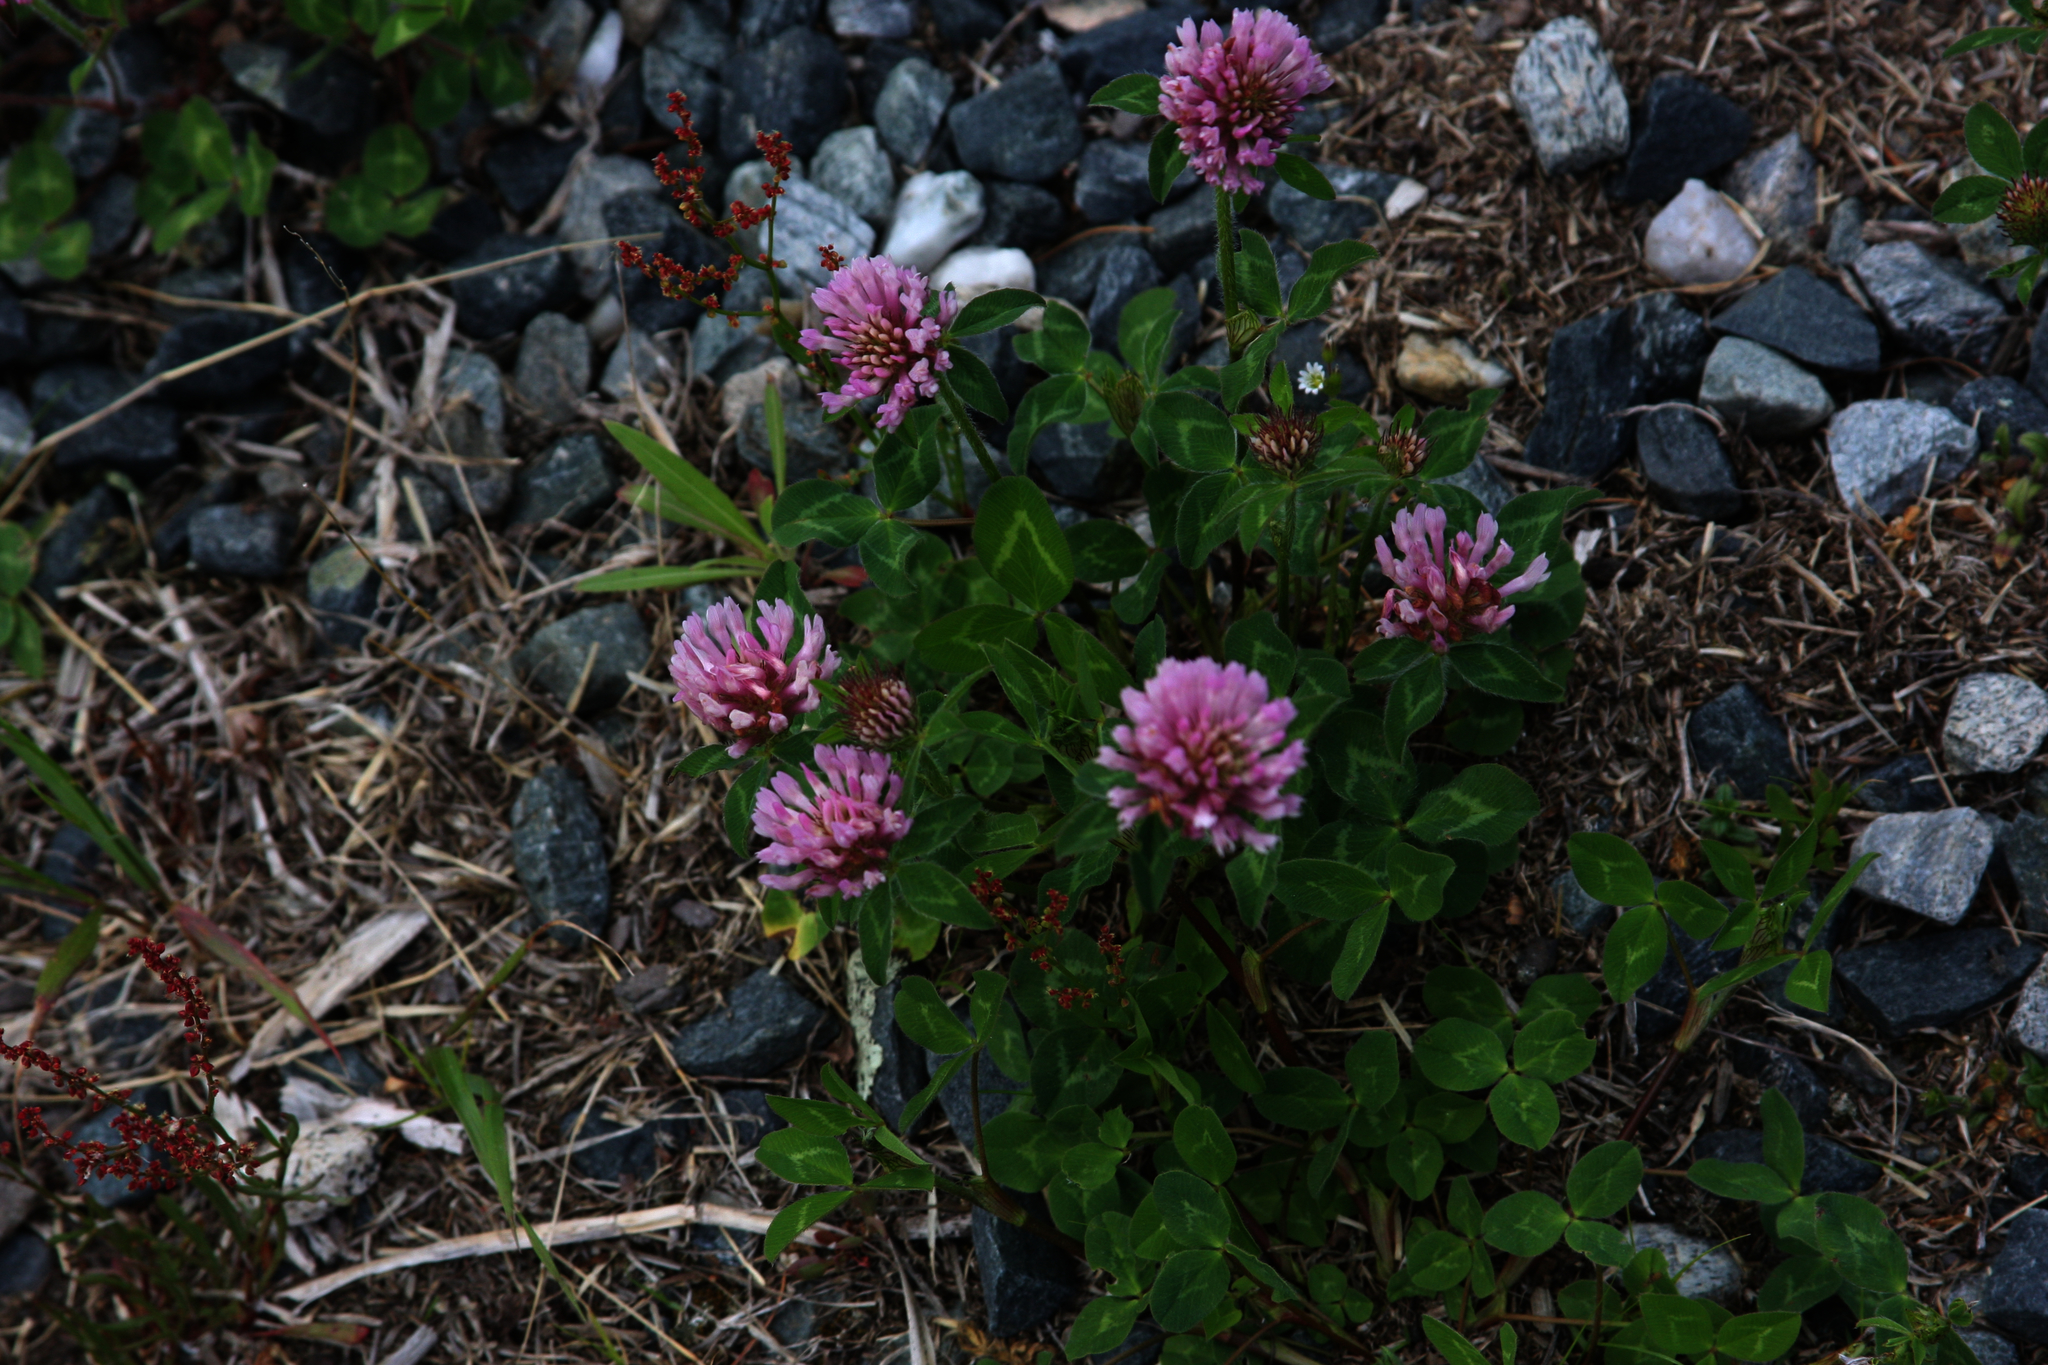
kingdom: Plantae
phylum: Tracheophyta
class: Magnoliopsida
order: Fabales
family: Fabaceae
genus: Trifolium
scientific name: Trifolium pratense
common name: Red clover
